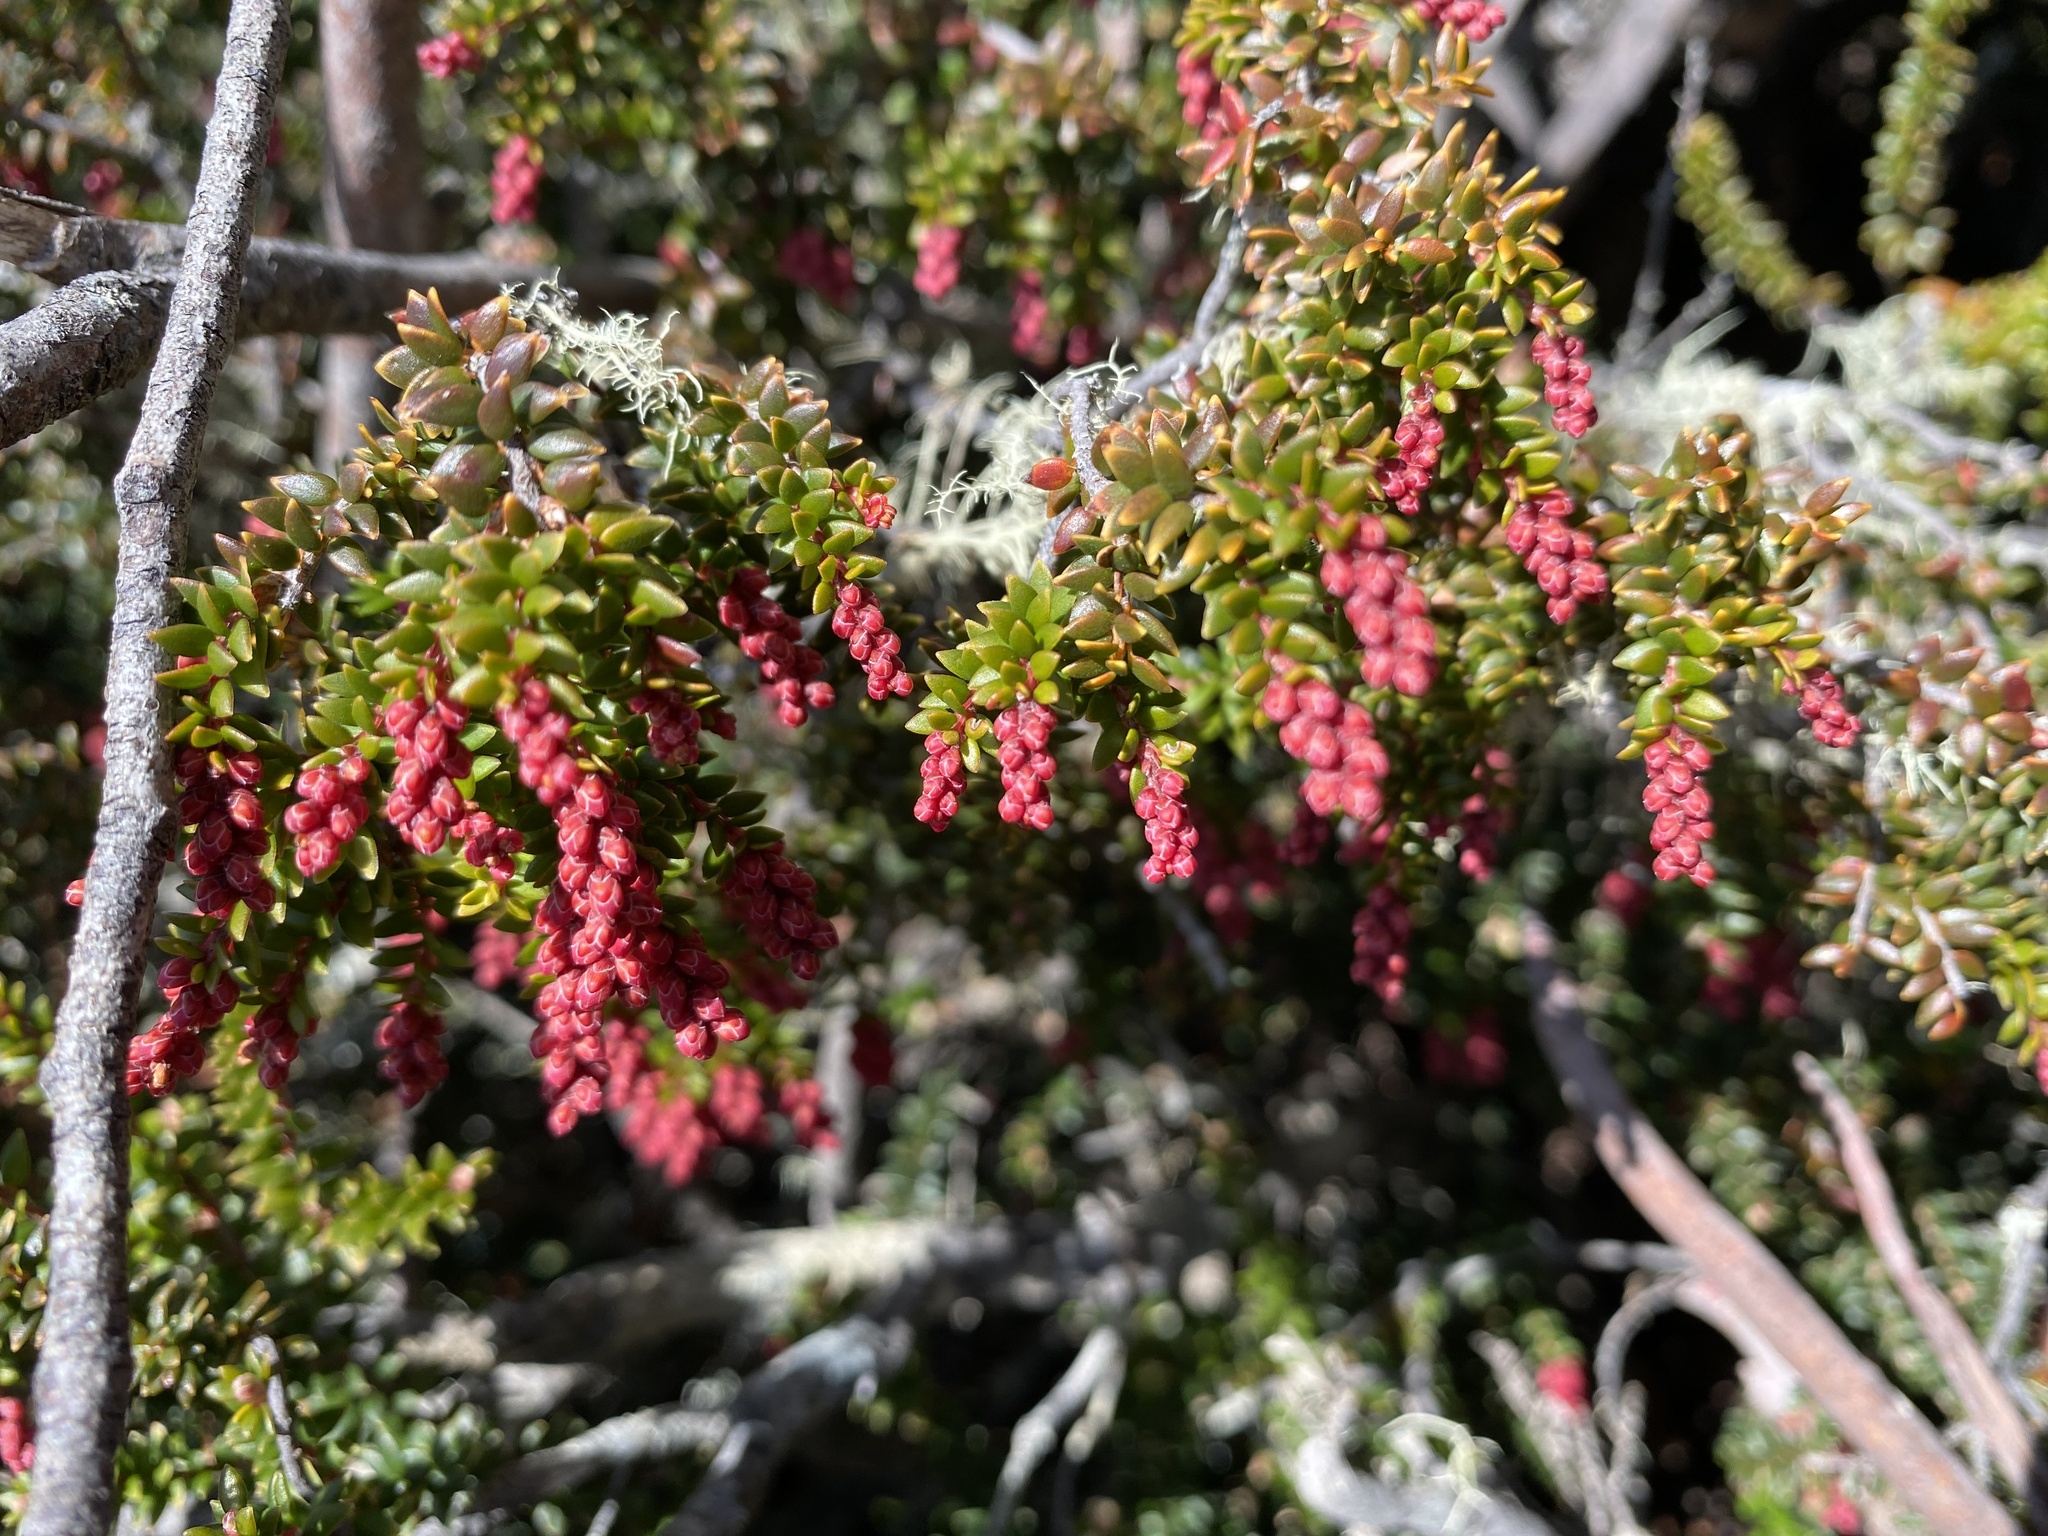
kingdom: Plantae
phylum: Tracheophyta
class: Magnoliopsida
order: Ericales
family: Ericaceae
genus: Trochocarpa
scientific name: Trochocarpa thymifolia
